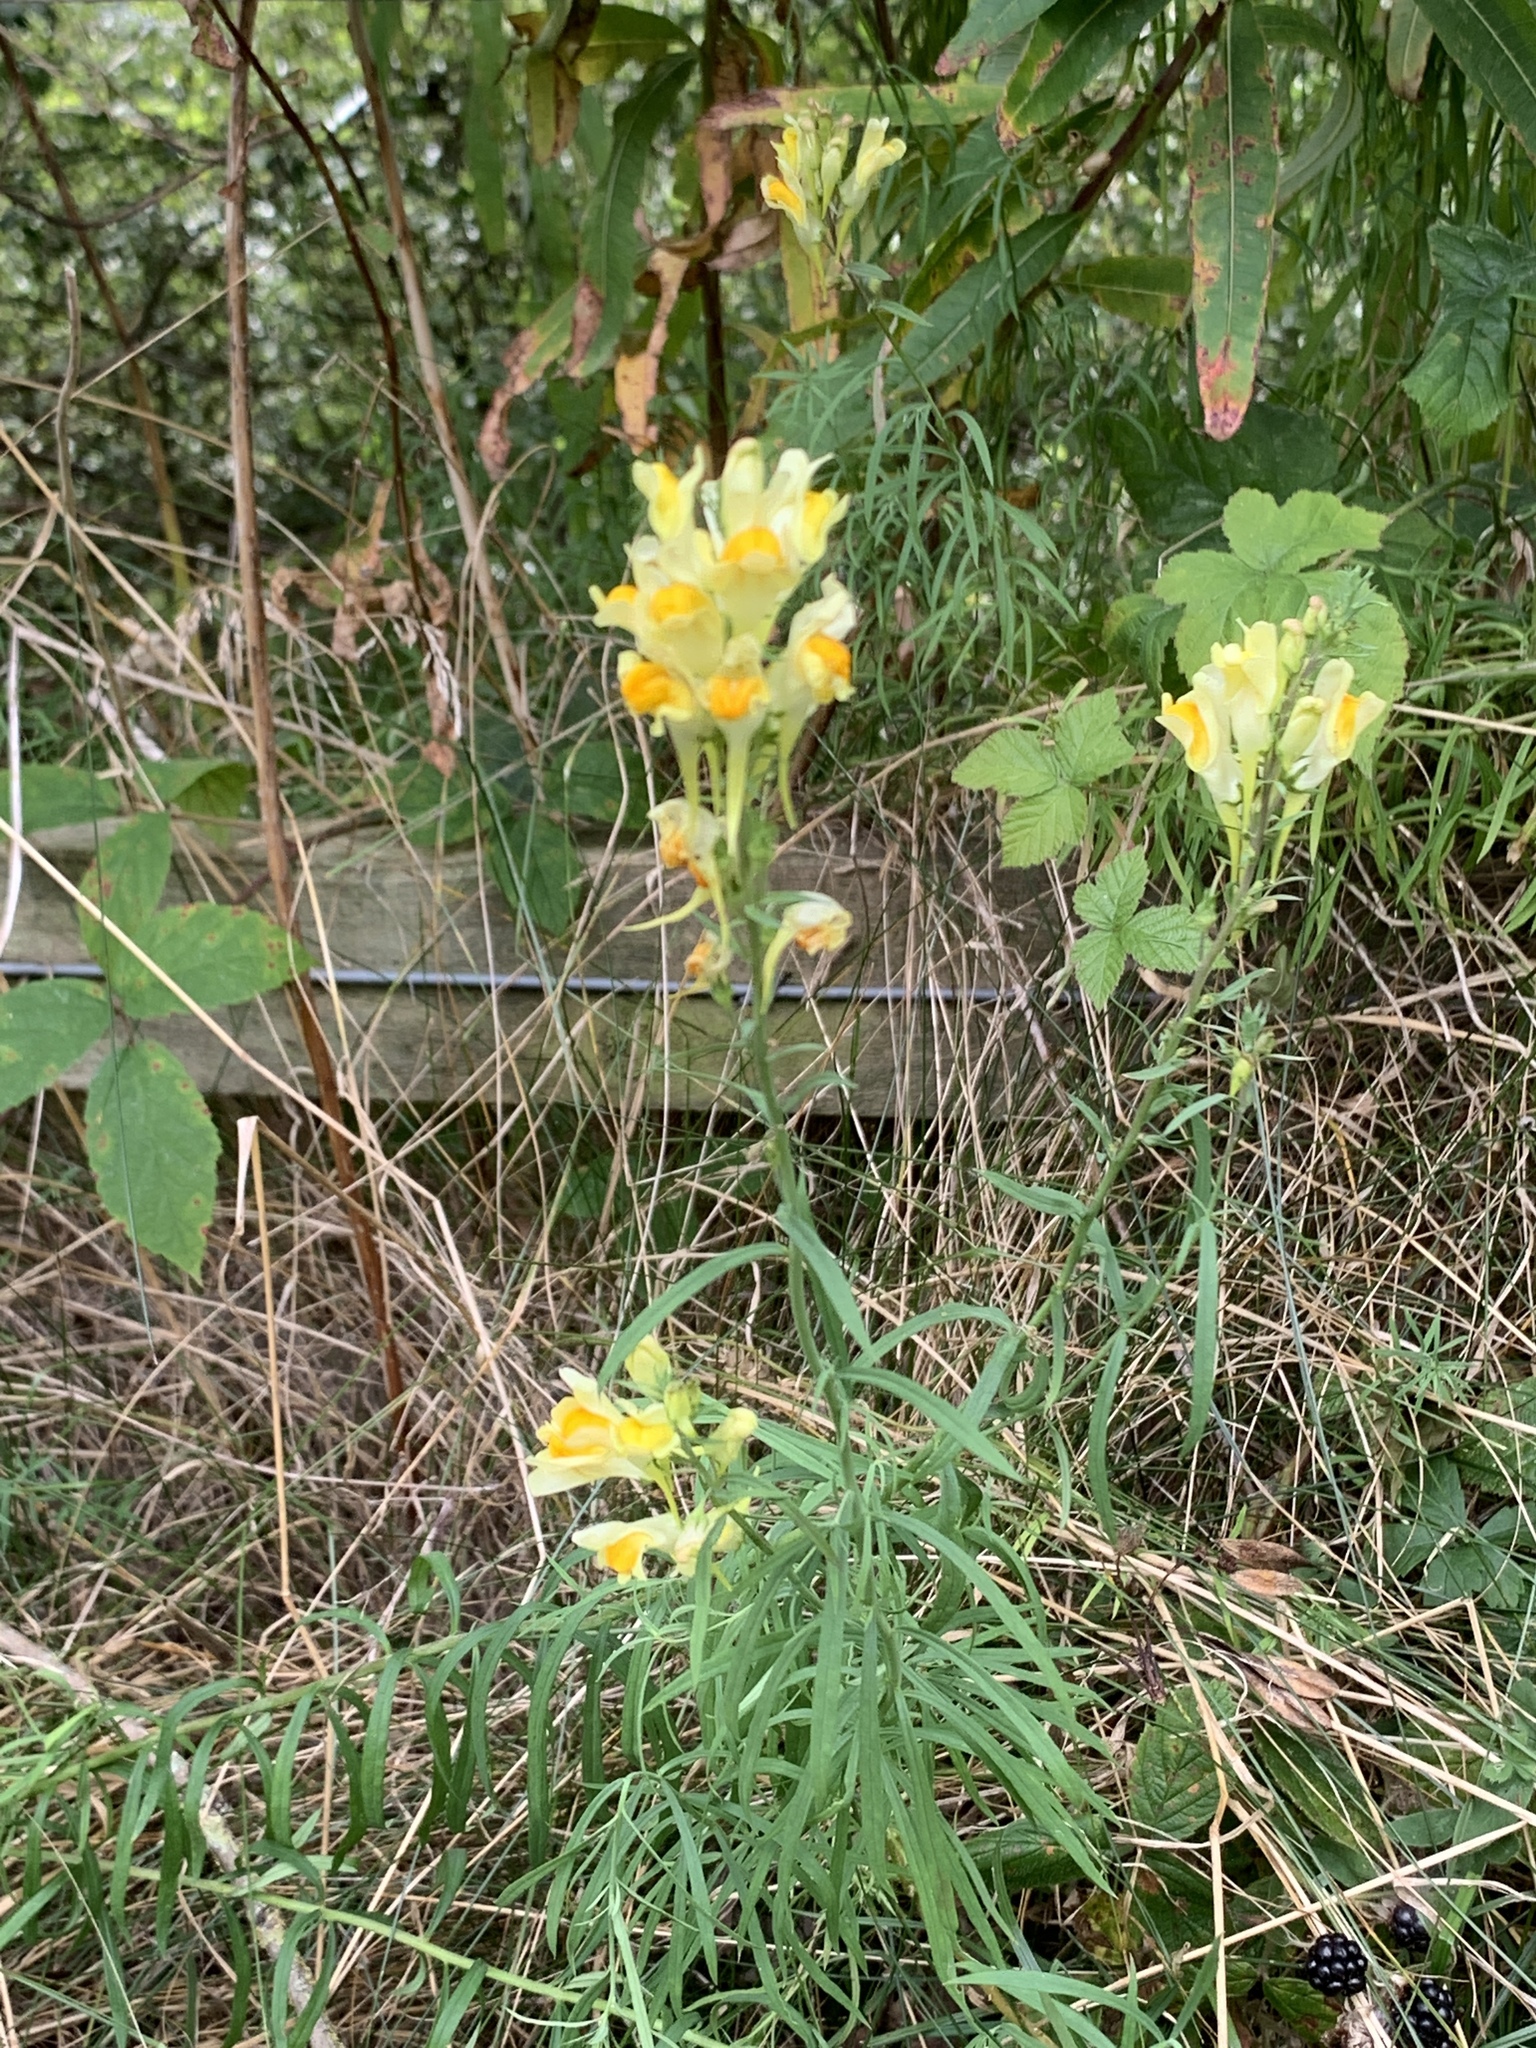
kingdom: Plantae
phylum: Tracheophyta
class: Magnoliopsida
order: Lamiales
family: Plantaginaceae
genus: Linaria
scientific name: Linaria vulgaris
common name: Butter and eggs
